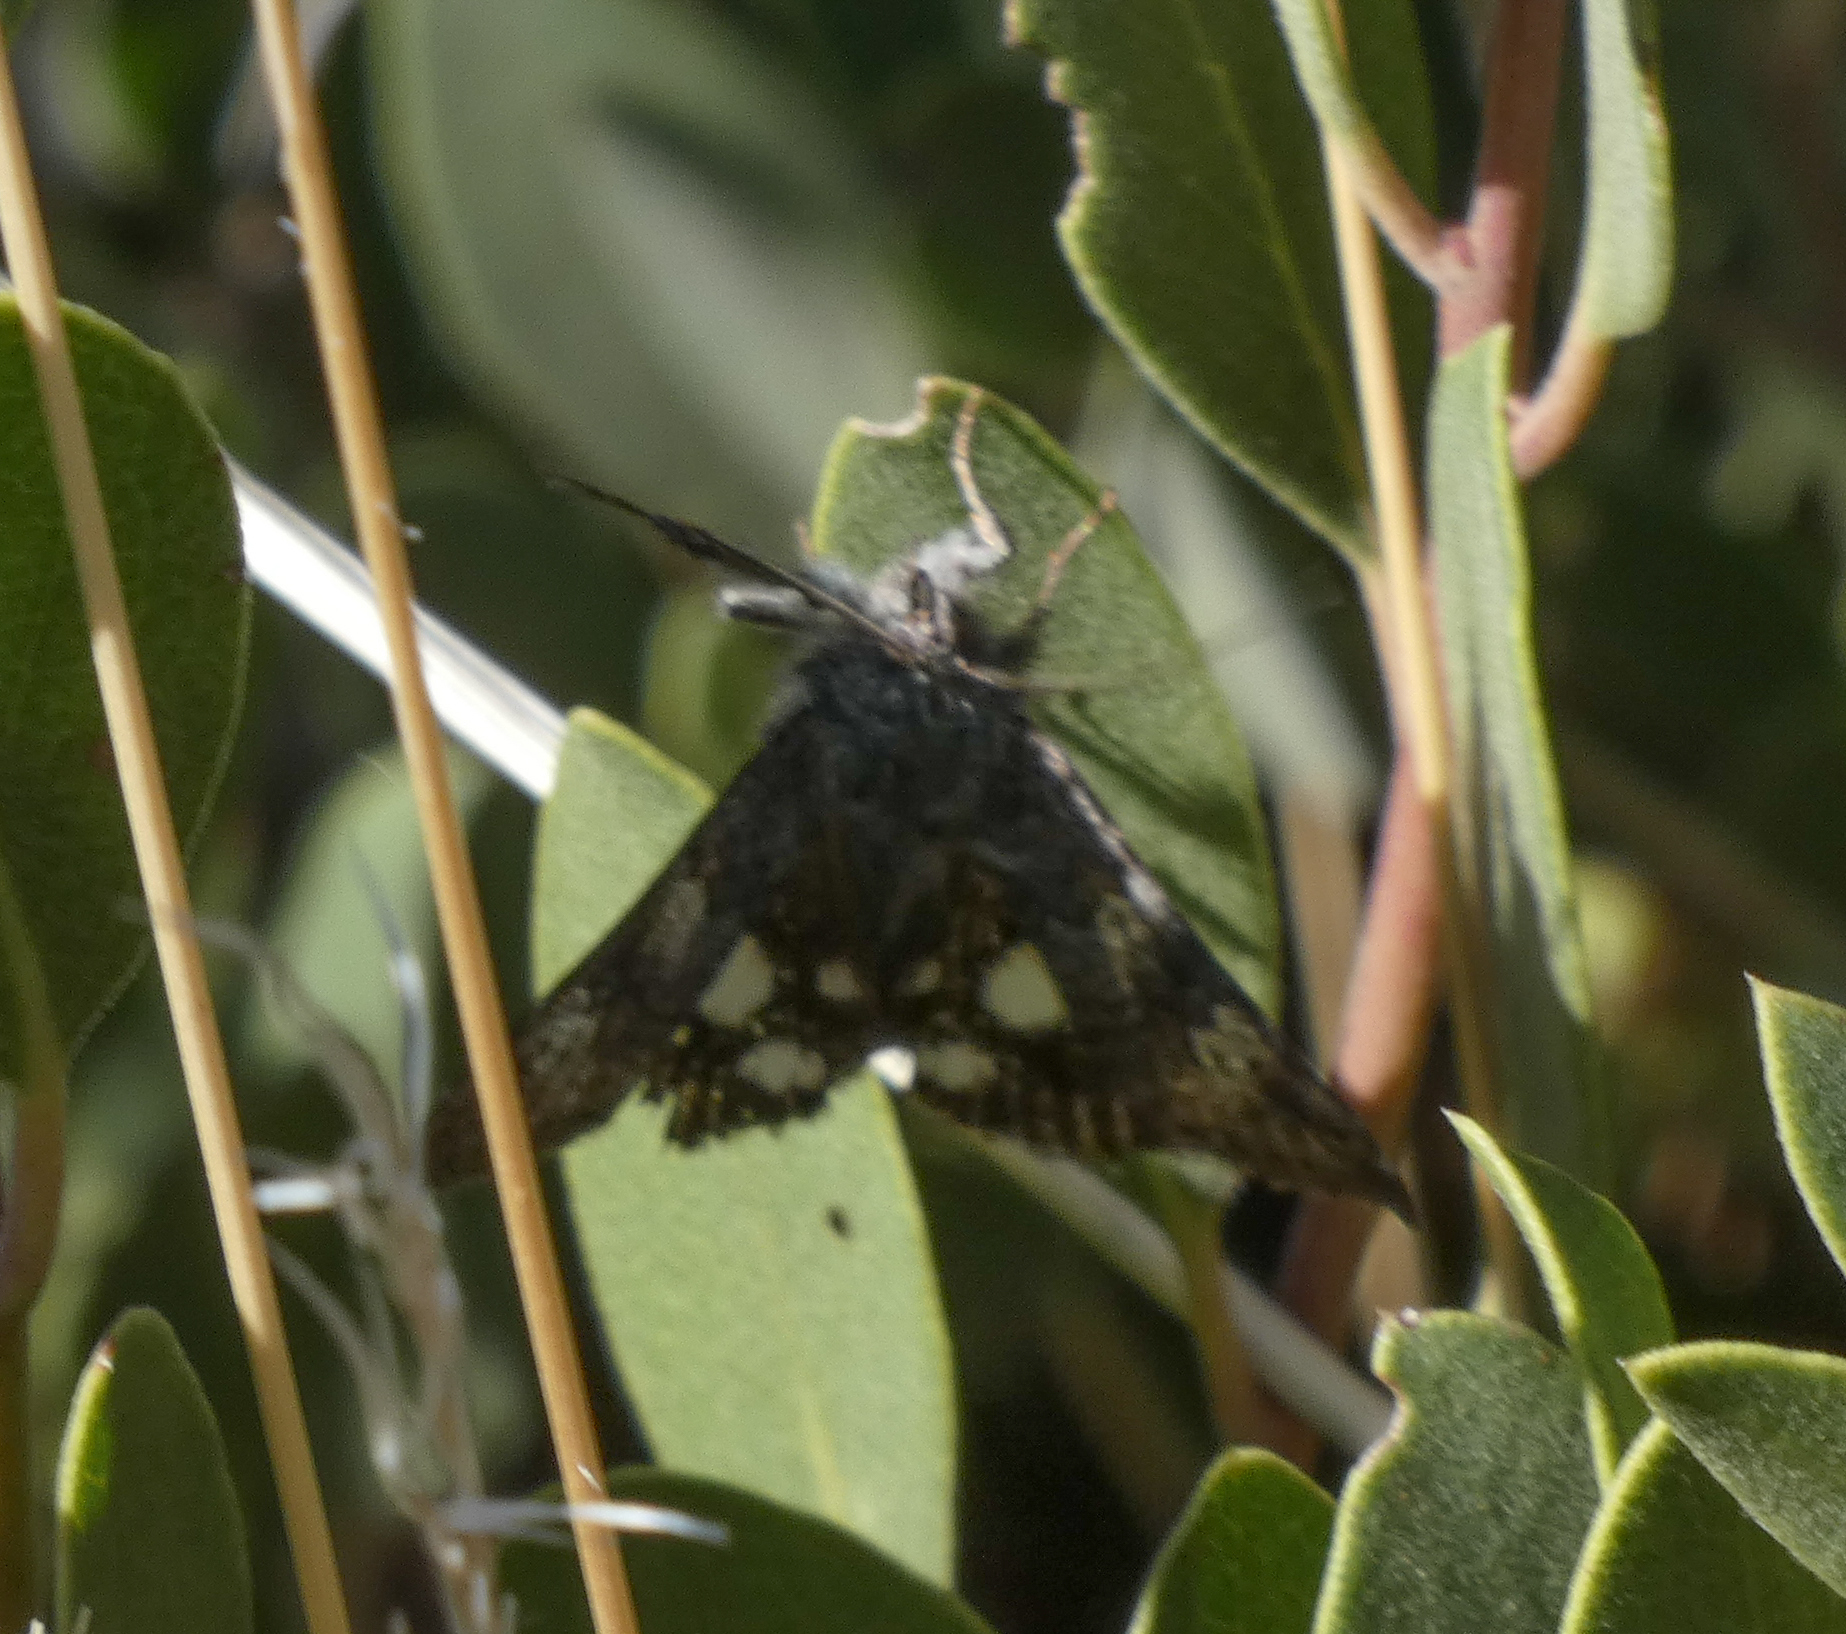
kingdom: Animalia
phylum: Arthropoda
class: Insecta
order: Lepidoptera
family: Erebidae
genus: Litocala
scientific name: Litocala sexsignata
